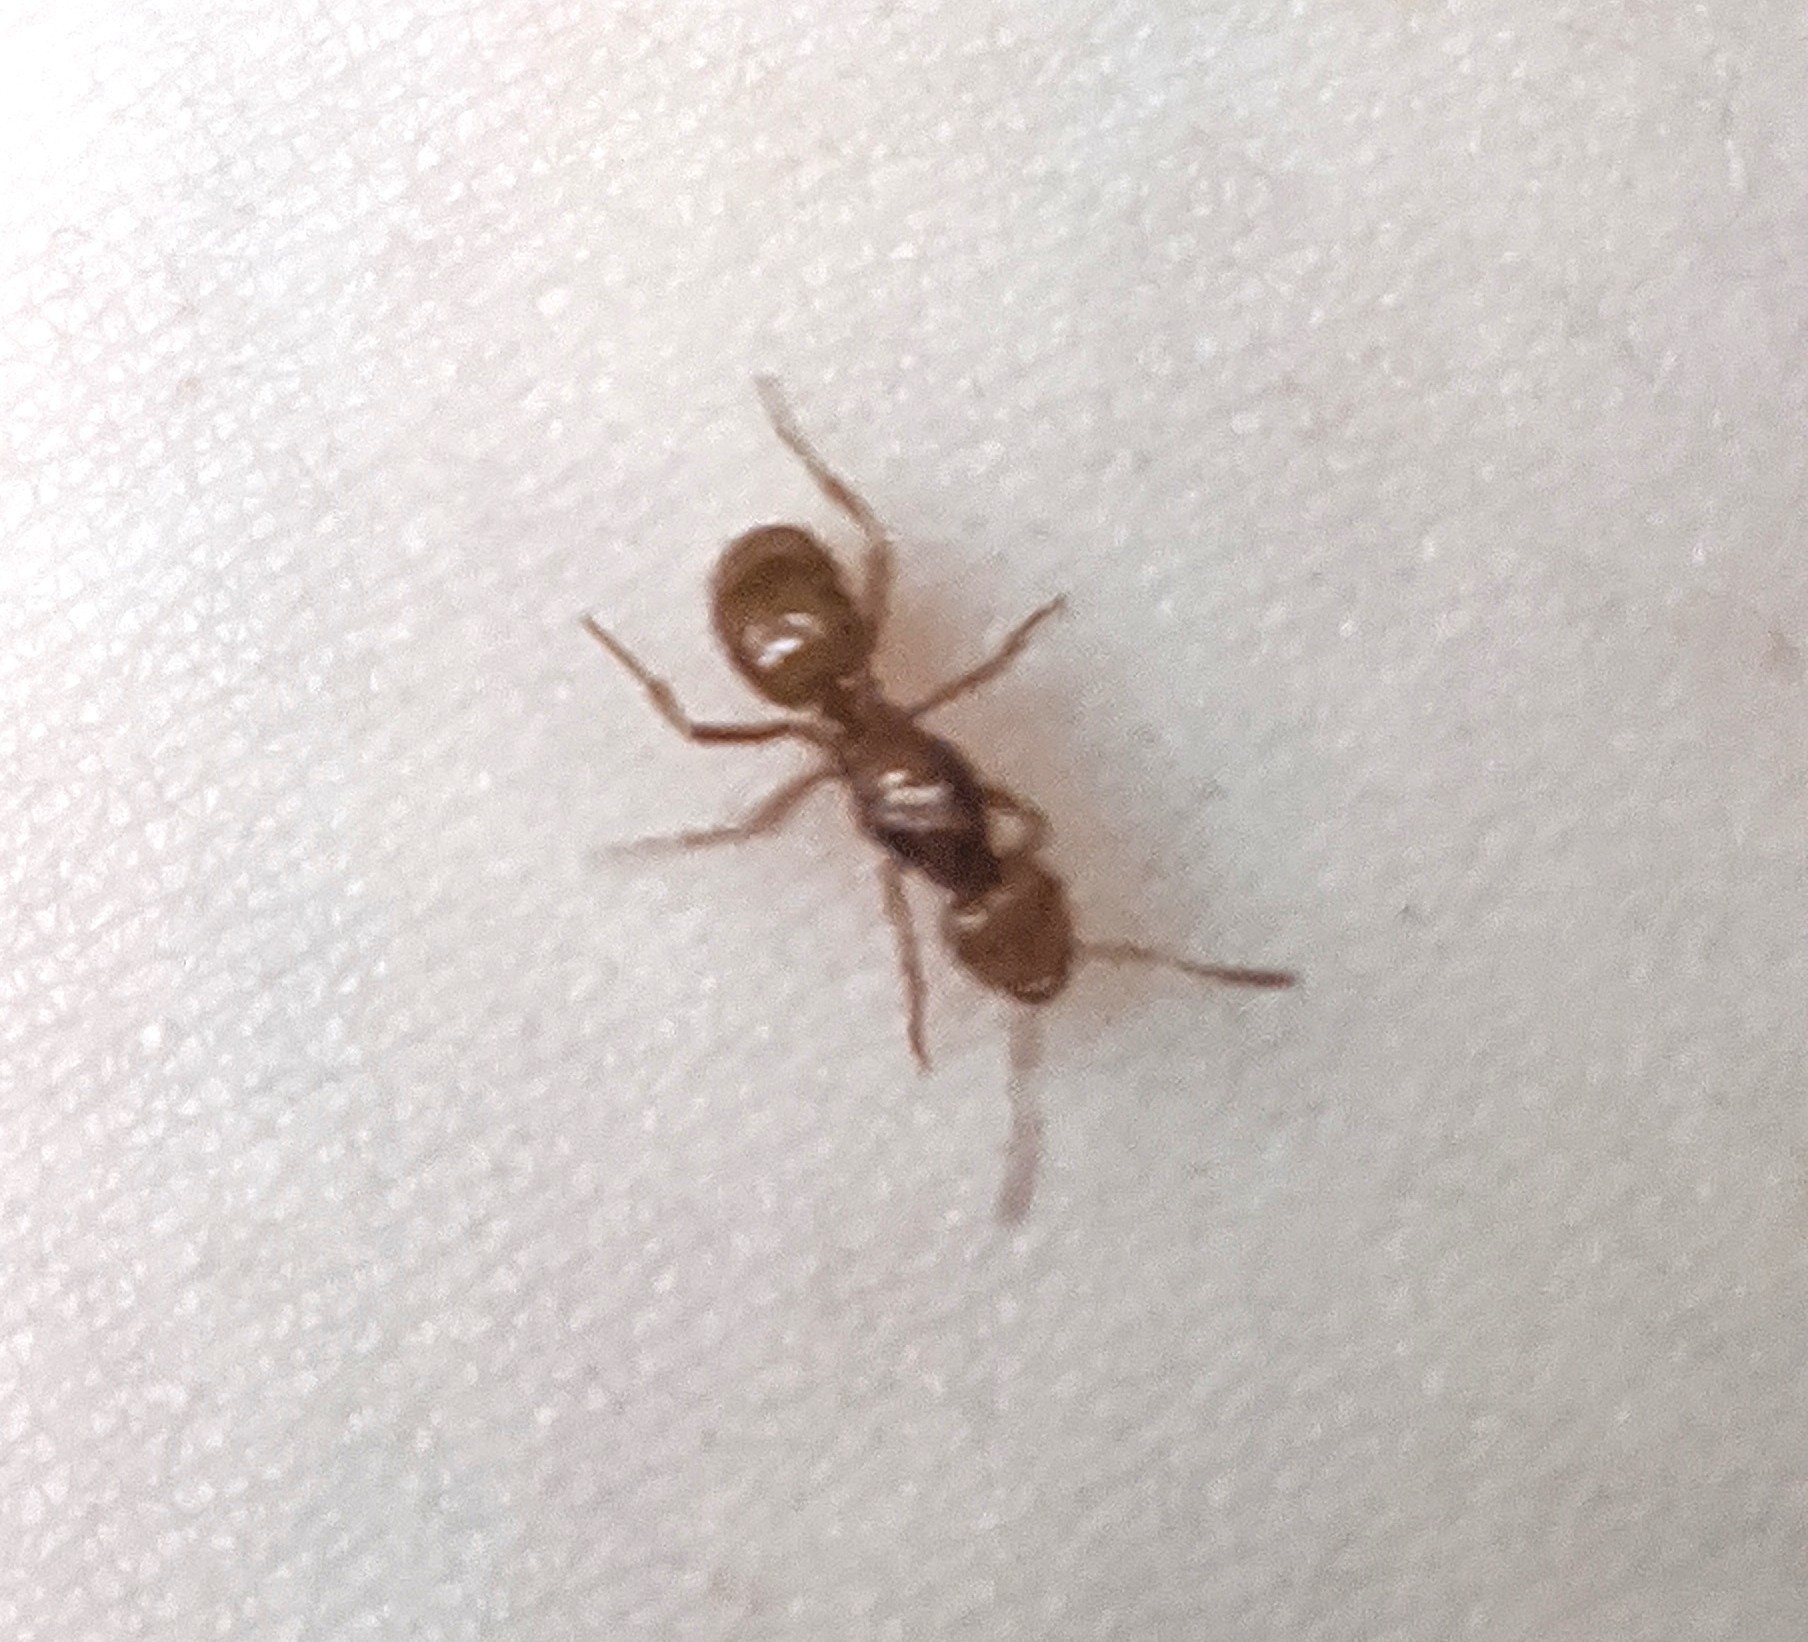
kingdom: Animalia
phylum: Arthropoda
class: Insecta
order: Hymenoptera
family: Formicidae
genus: Acanthomyops
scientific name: Acanthomyops interjectus
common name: Larger yellow ant
